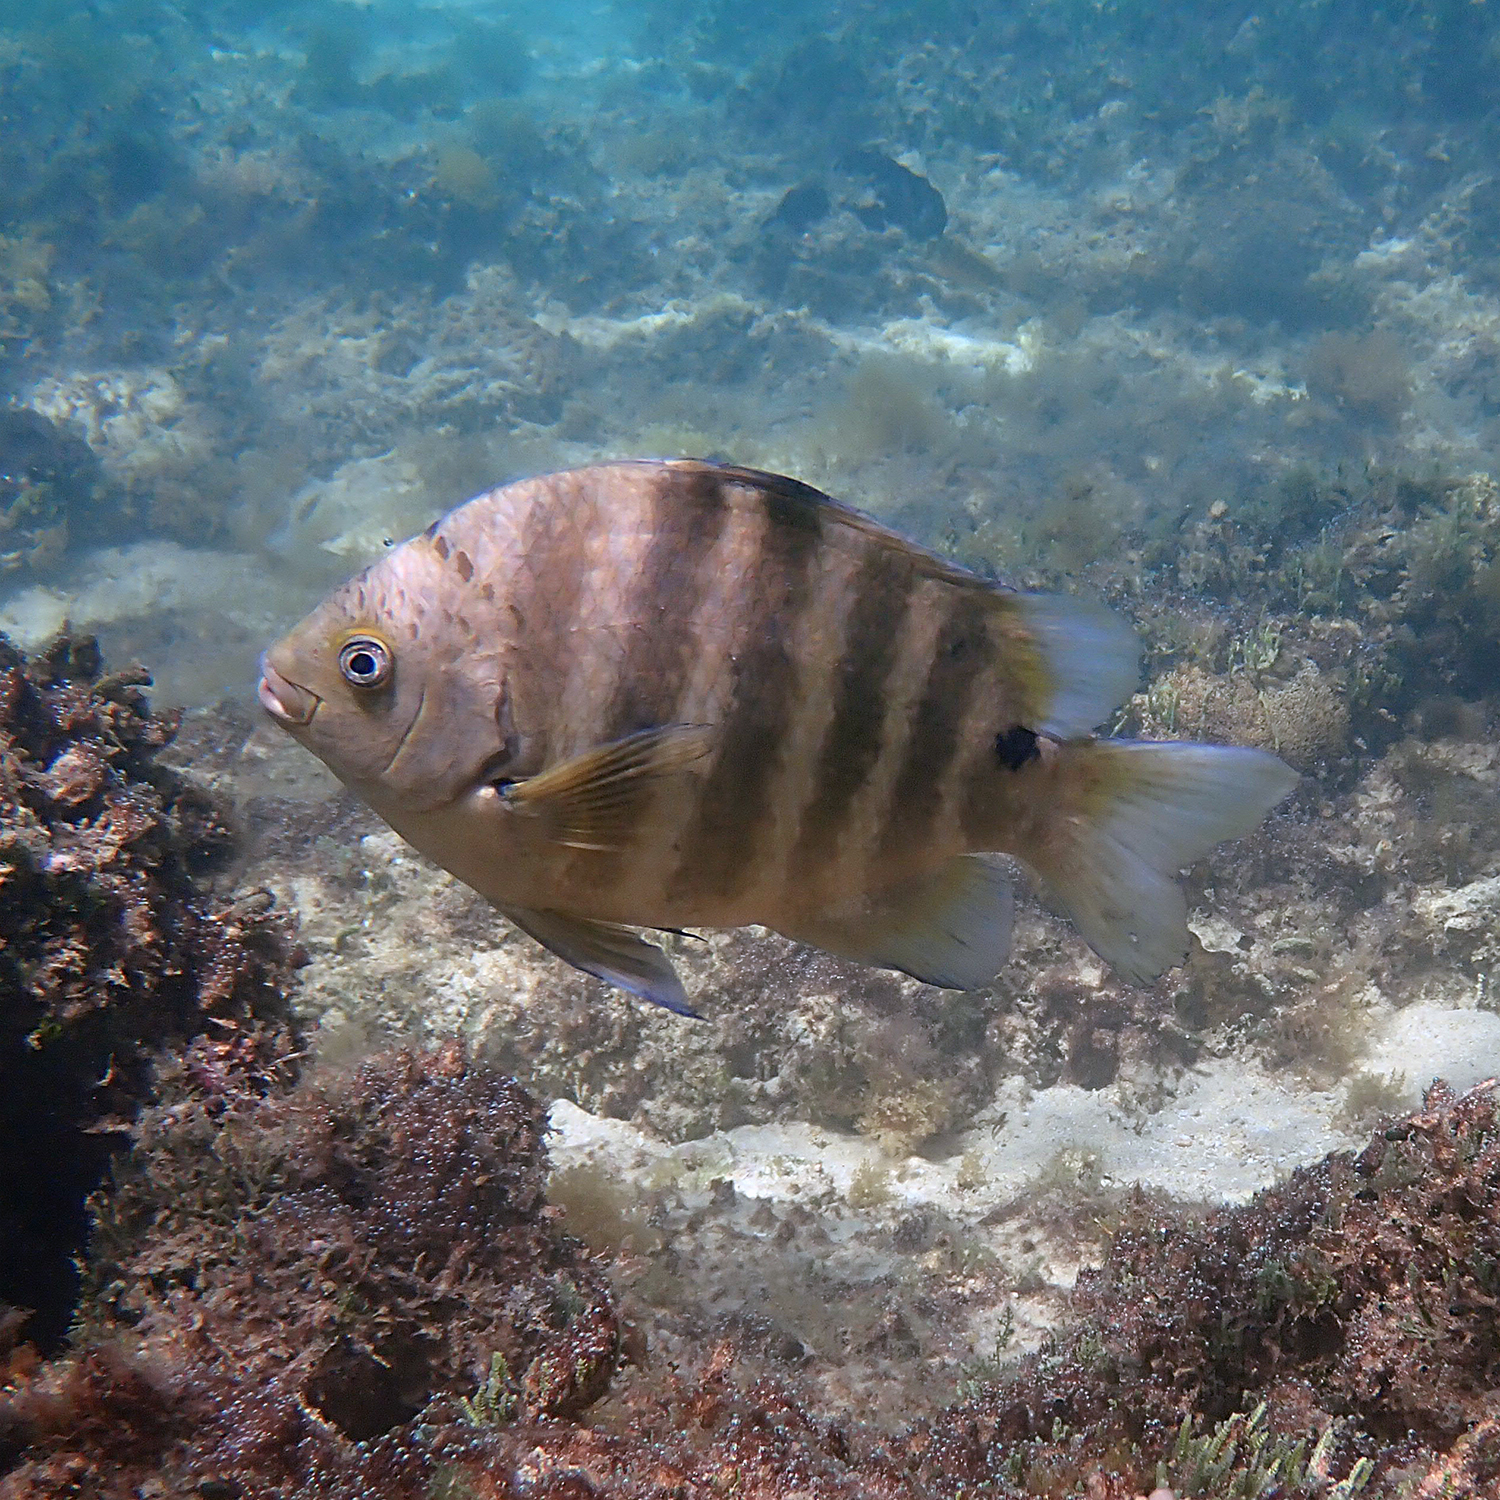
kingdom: Animalia
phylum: Chordata
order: Perciformes
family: Pomacentridae
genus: Abudefduf
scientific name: Abudefduf sordidus
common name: Blackspot sergeant
